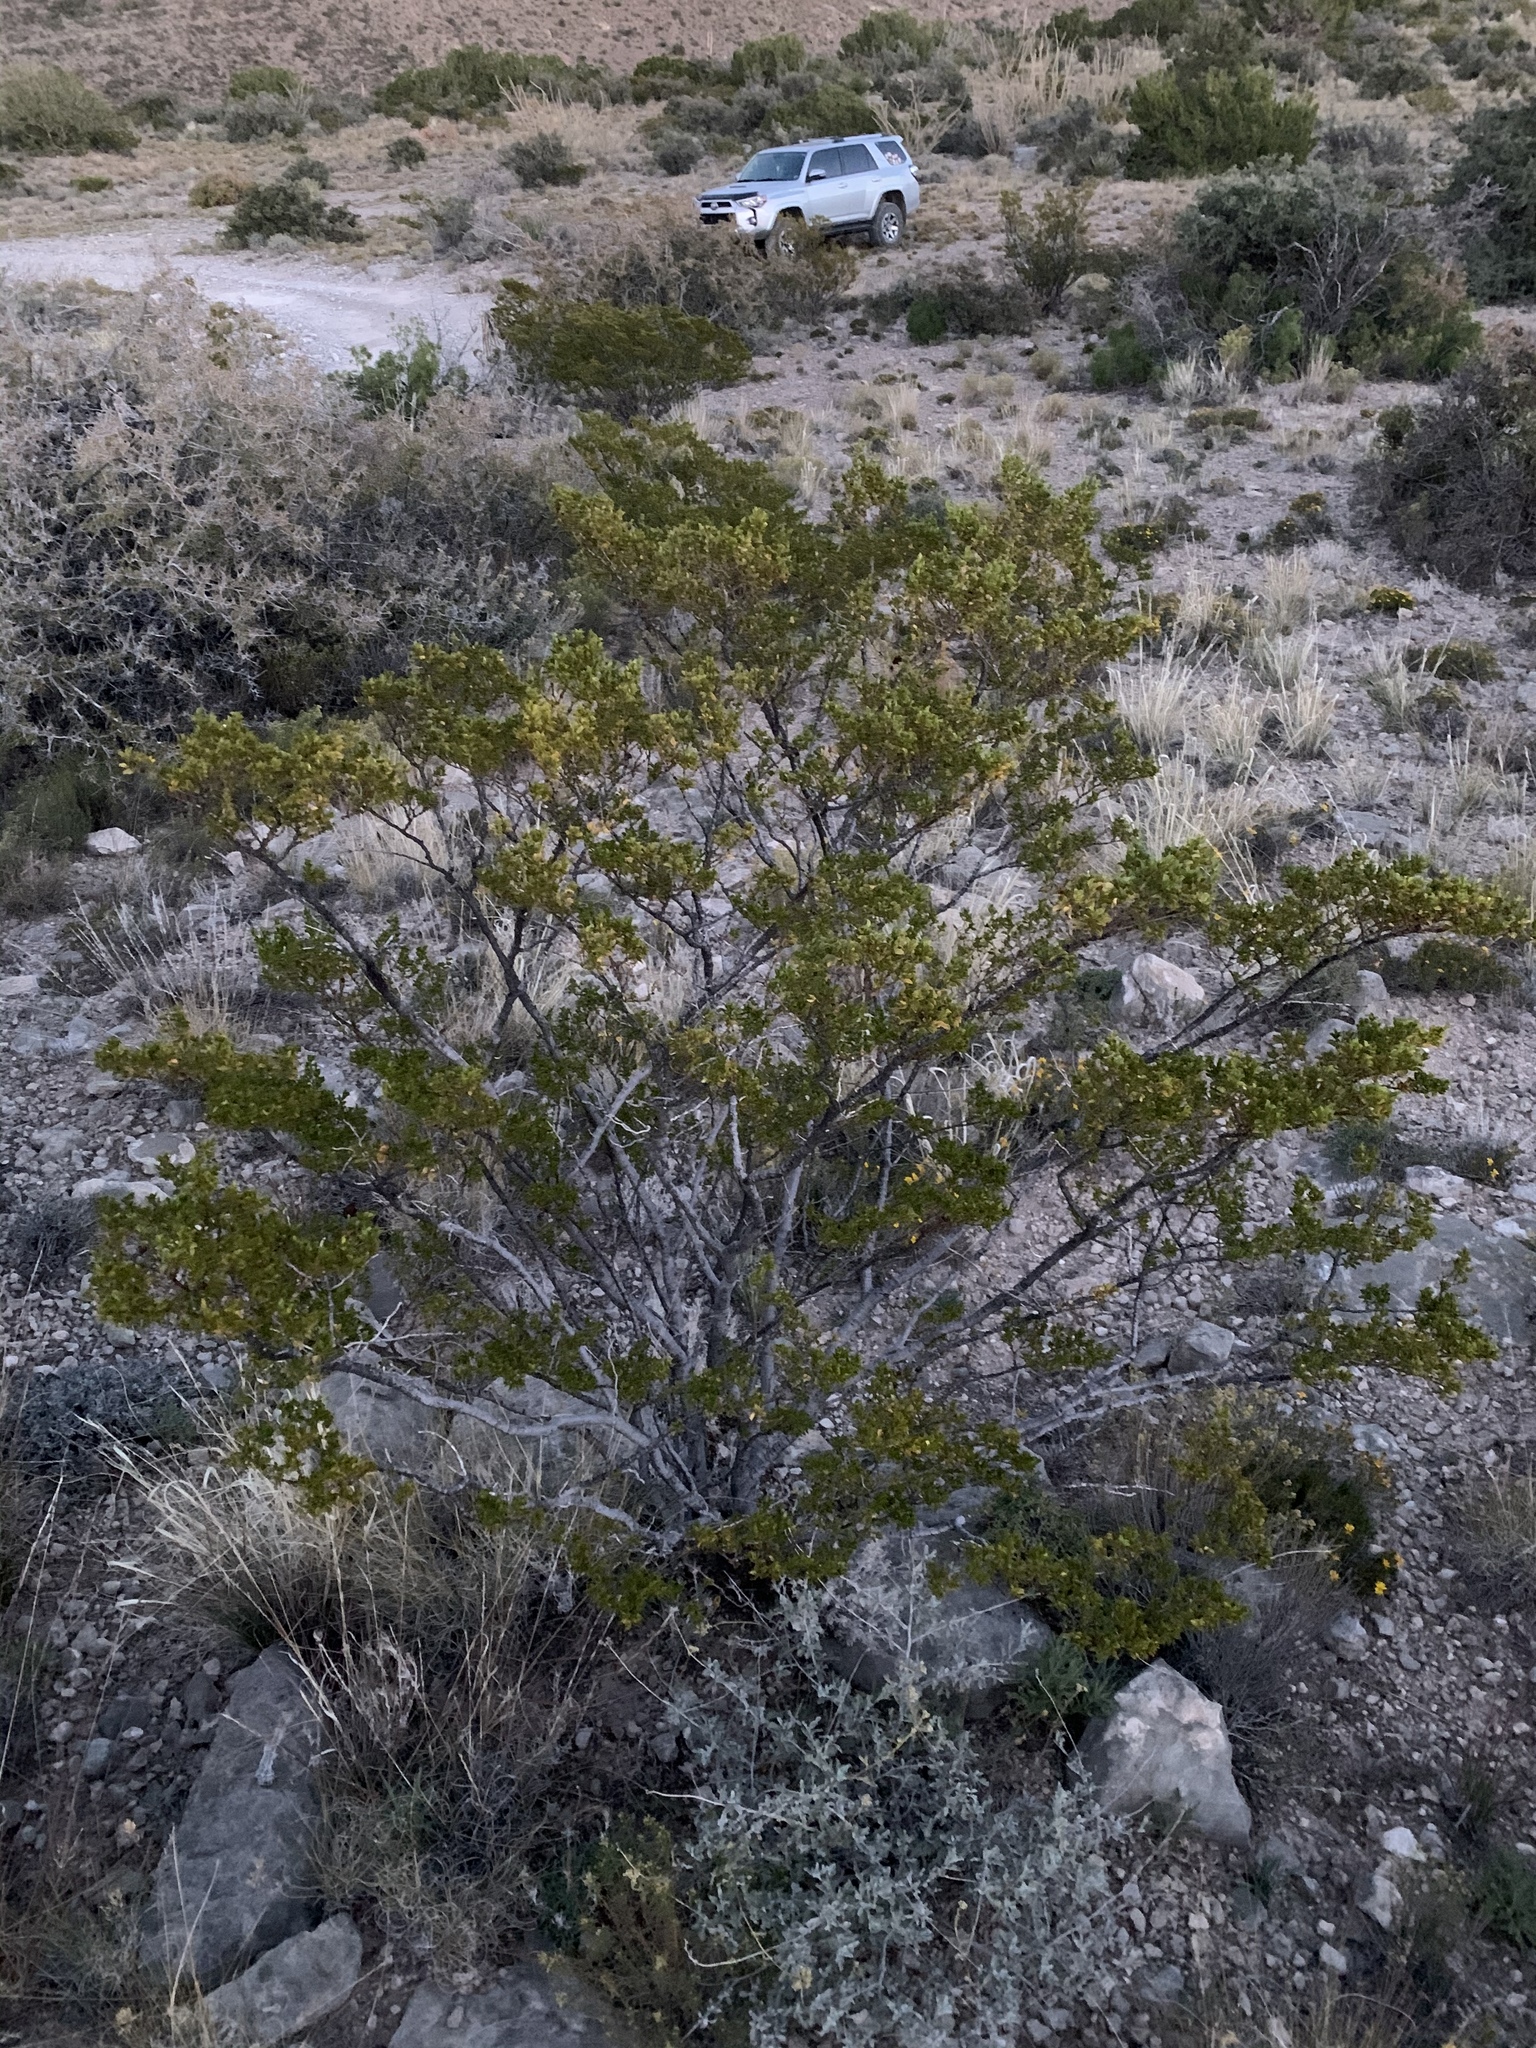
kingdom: Plantae
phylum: Tracheophyta
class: Magnoliopsida
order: Zygophyllales
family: Zygophyllaceae
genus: Larrea
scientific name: Larrea tridentata
